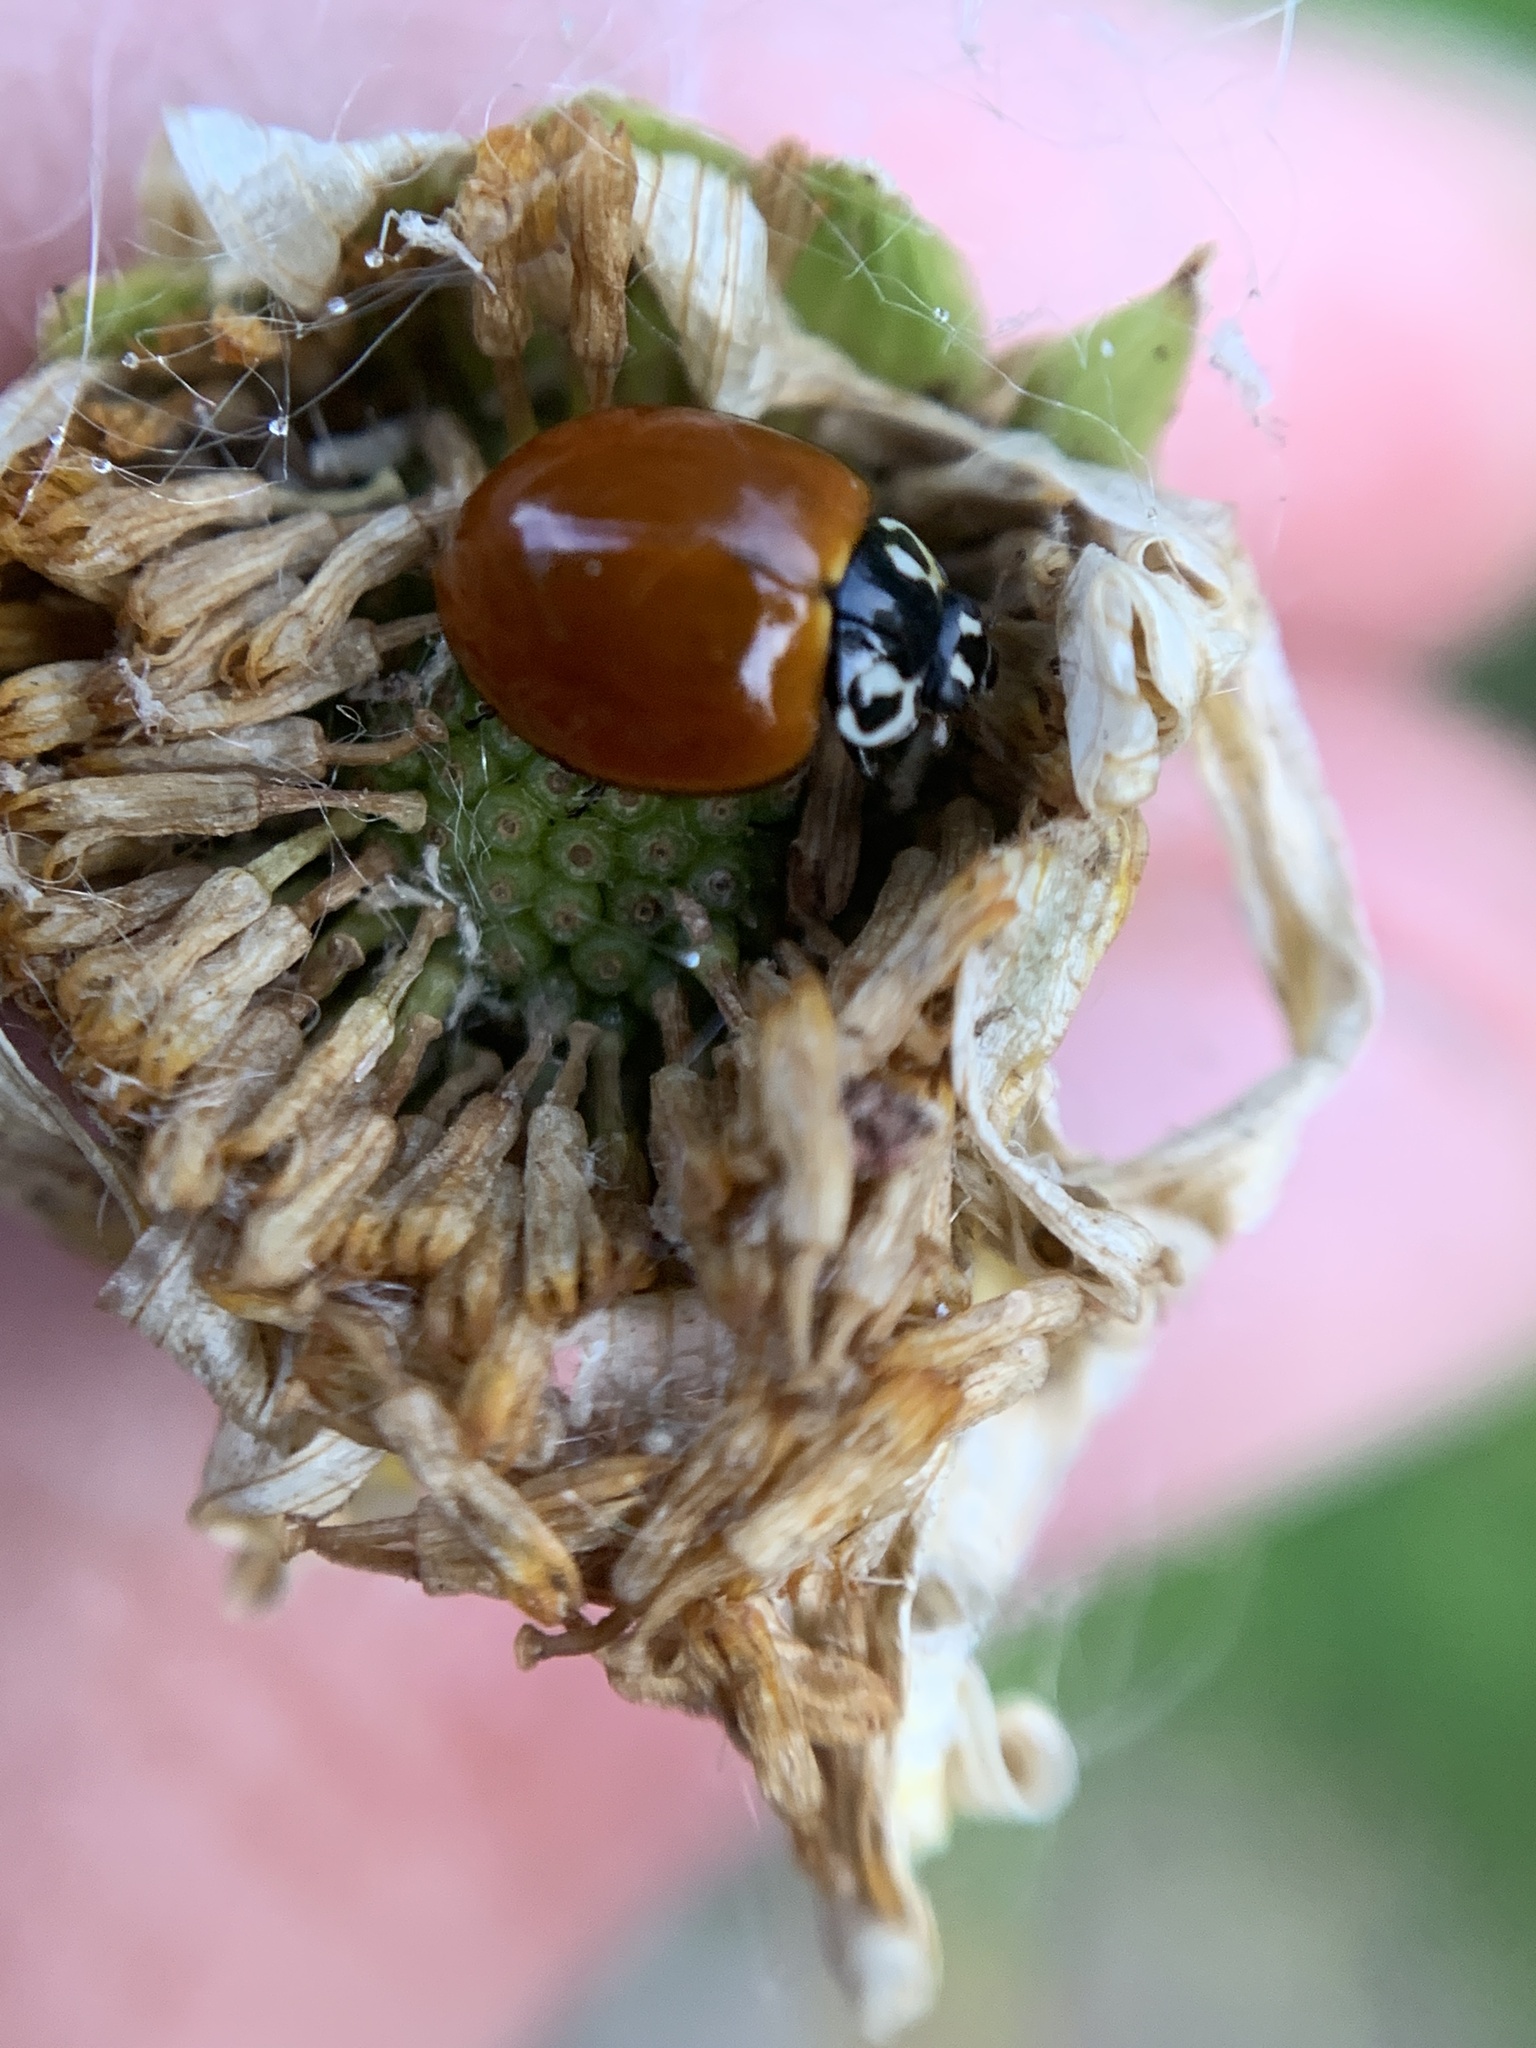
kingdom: Animalia
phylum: Arthropoda
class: Insecta
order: Coleoptera
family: Coccinellidae
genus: Cycloneda
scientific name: Cycloneda sanguinea
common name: Ladybird beetle
